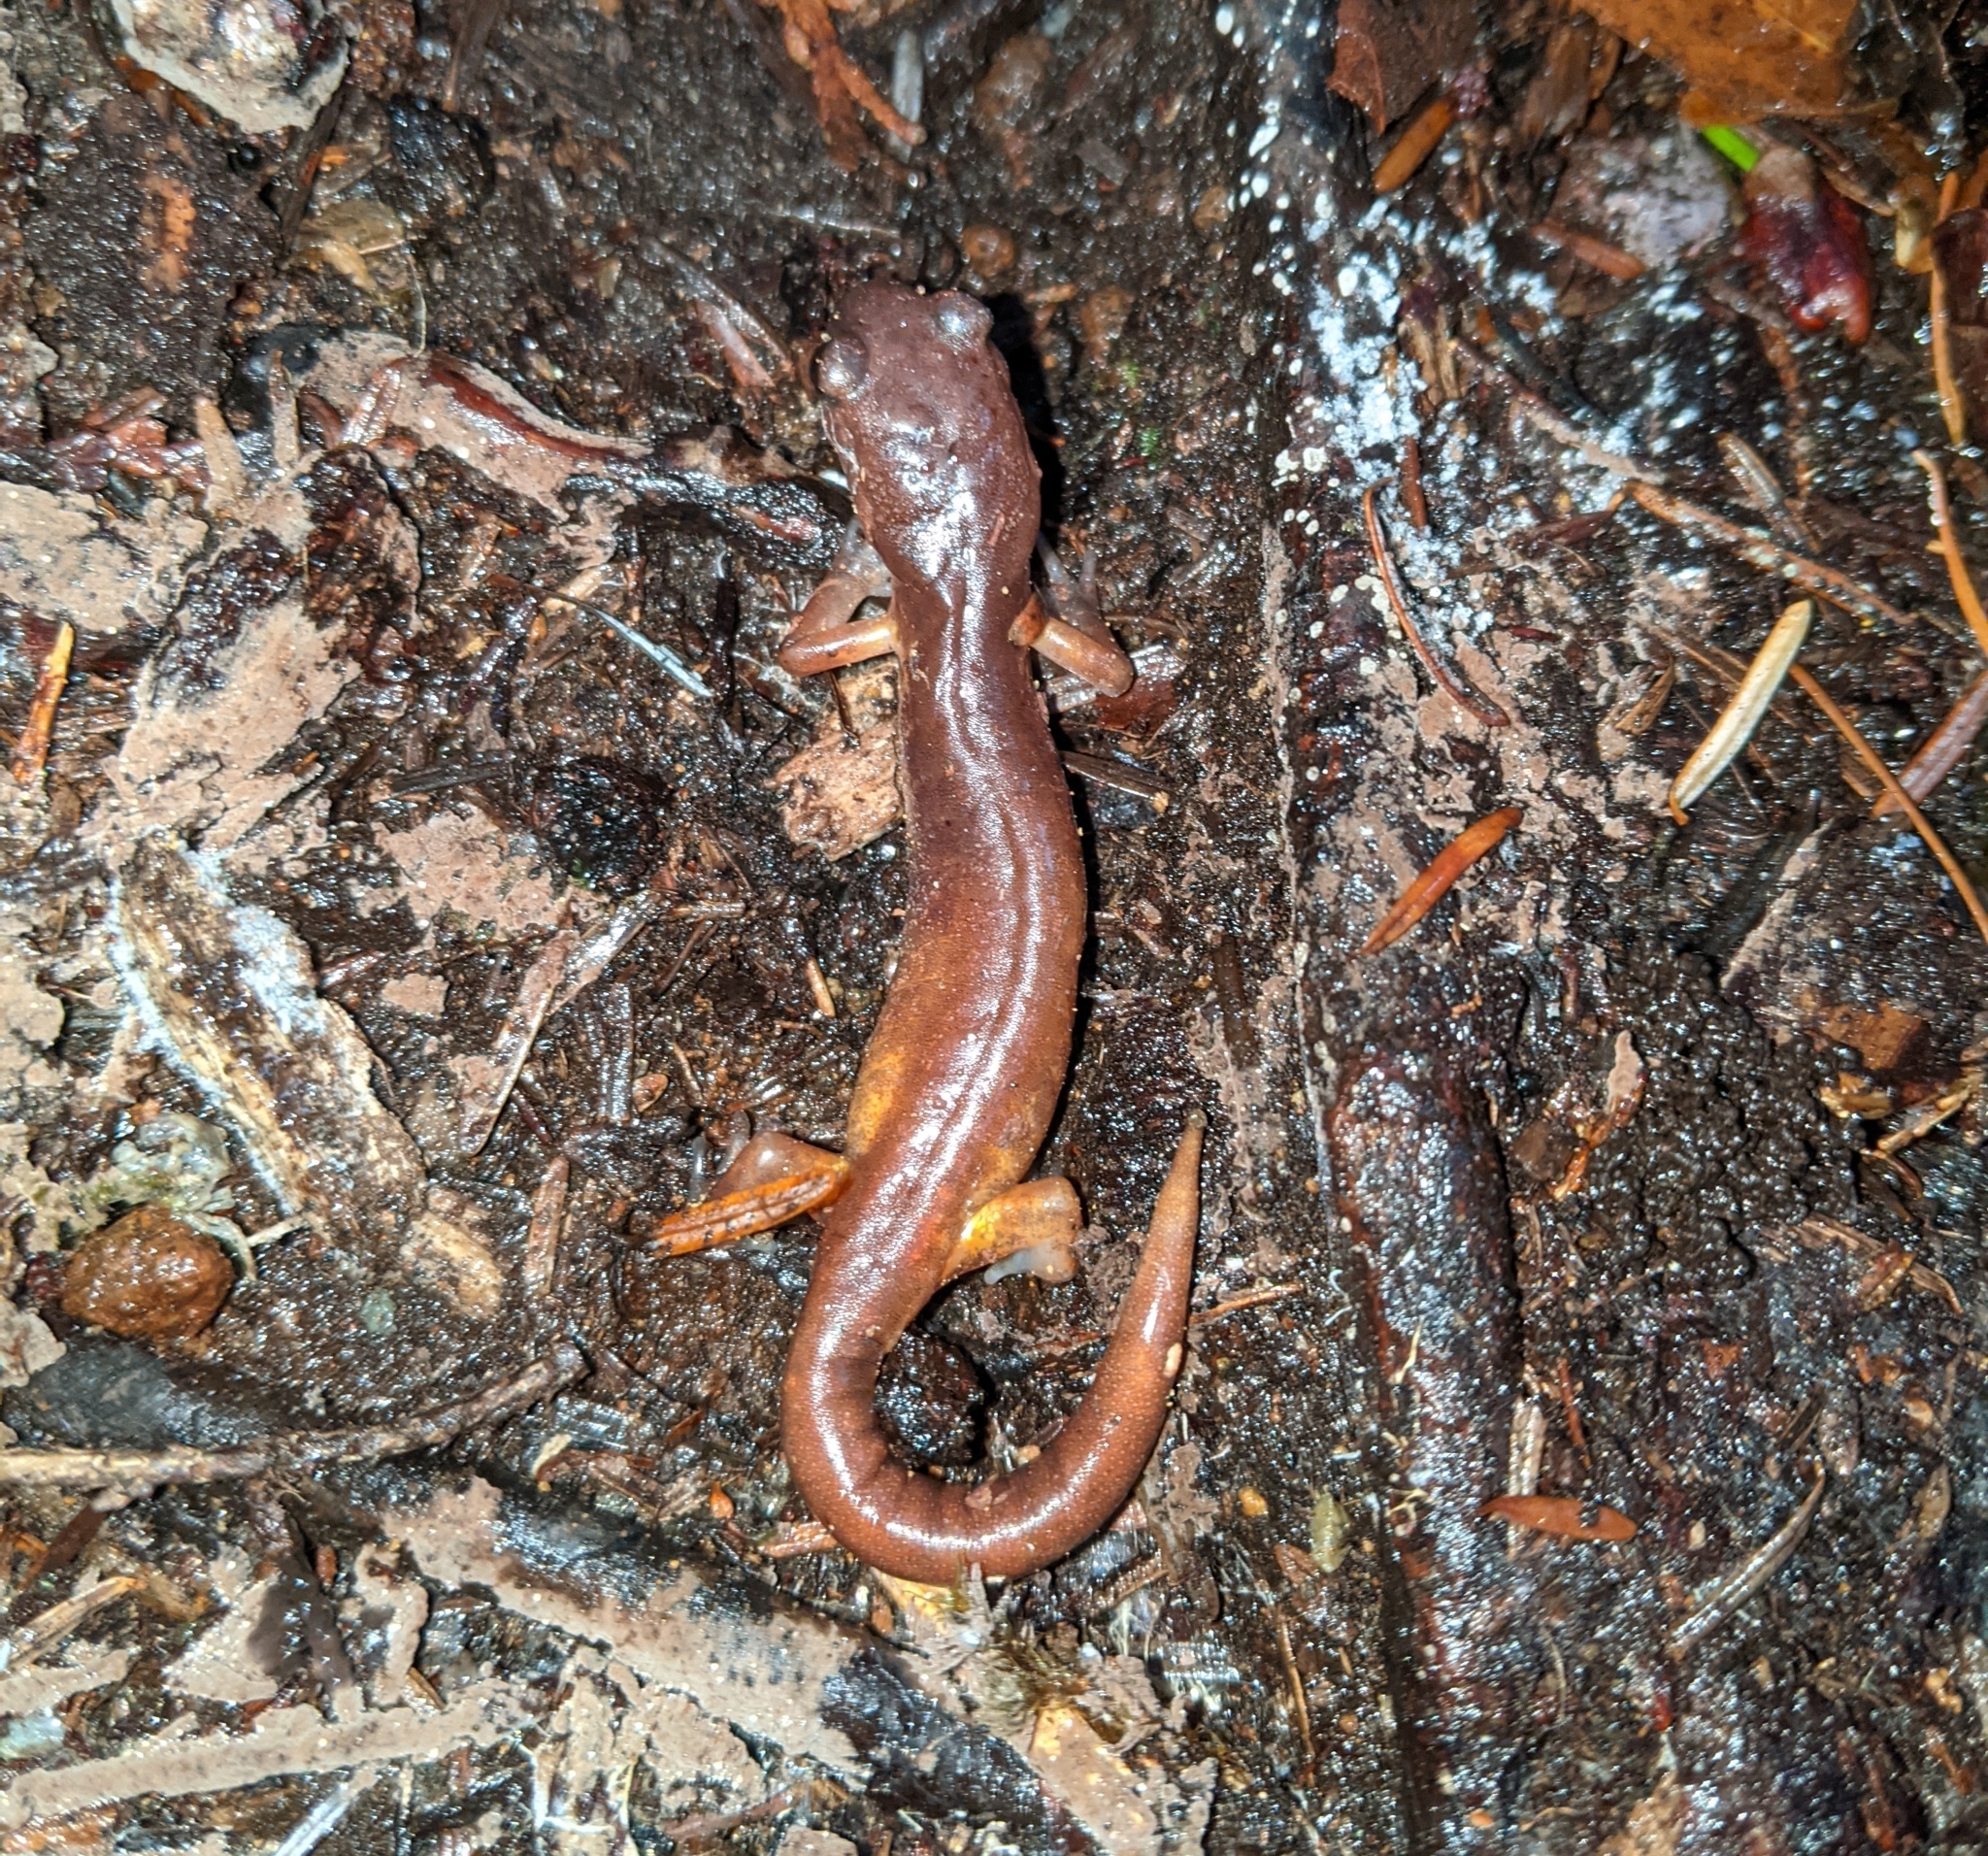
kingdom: Animalia
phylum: Chordata
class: Amphibia
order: Caudata
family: Plethodontidae
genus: Ensatina
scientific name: Ensatina eschscholtzii
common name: Ensatina
